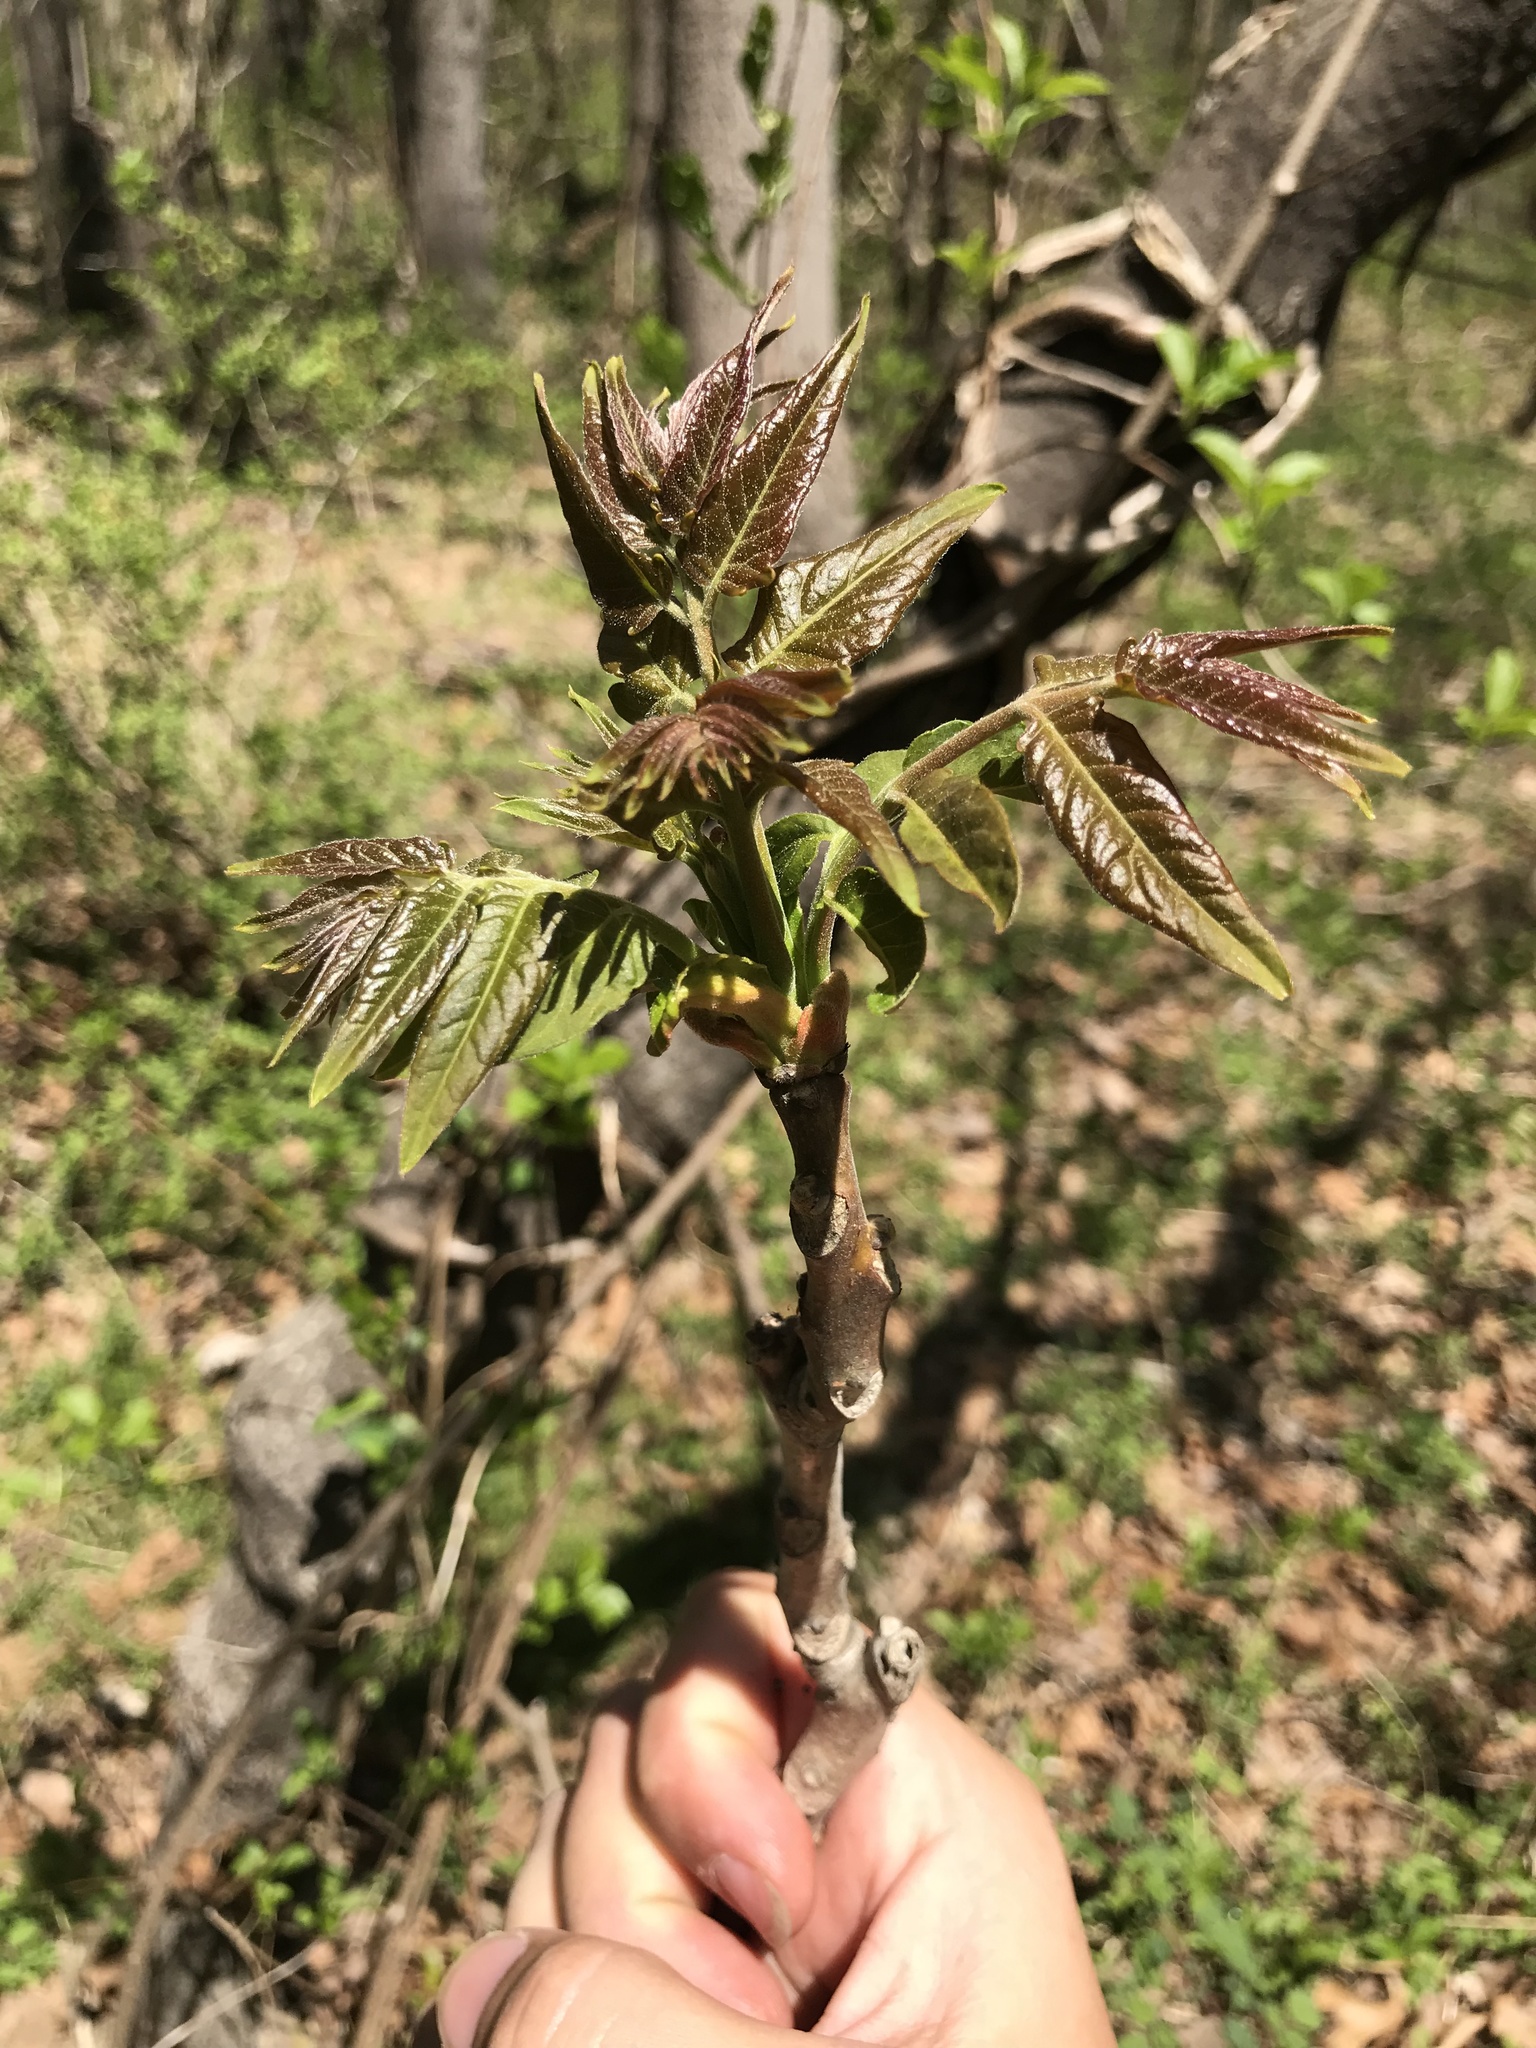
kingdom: Plantae
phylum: Tracheophyta
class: Magnoliopsida
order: Sapindales
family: Simaroubaceae
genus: Ailanthus
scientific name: Ailanthus altissima
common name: Tree-of-heaven
